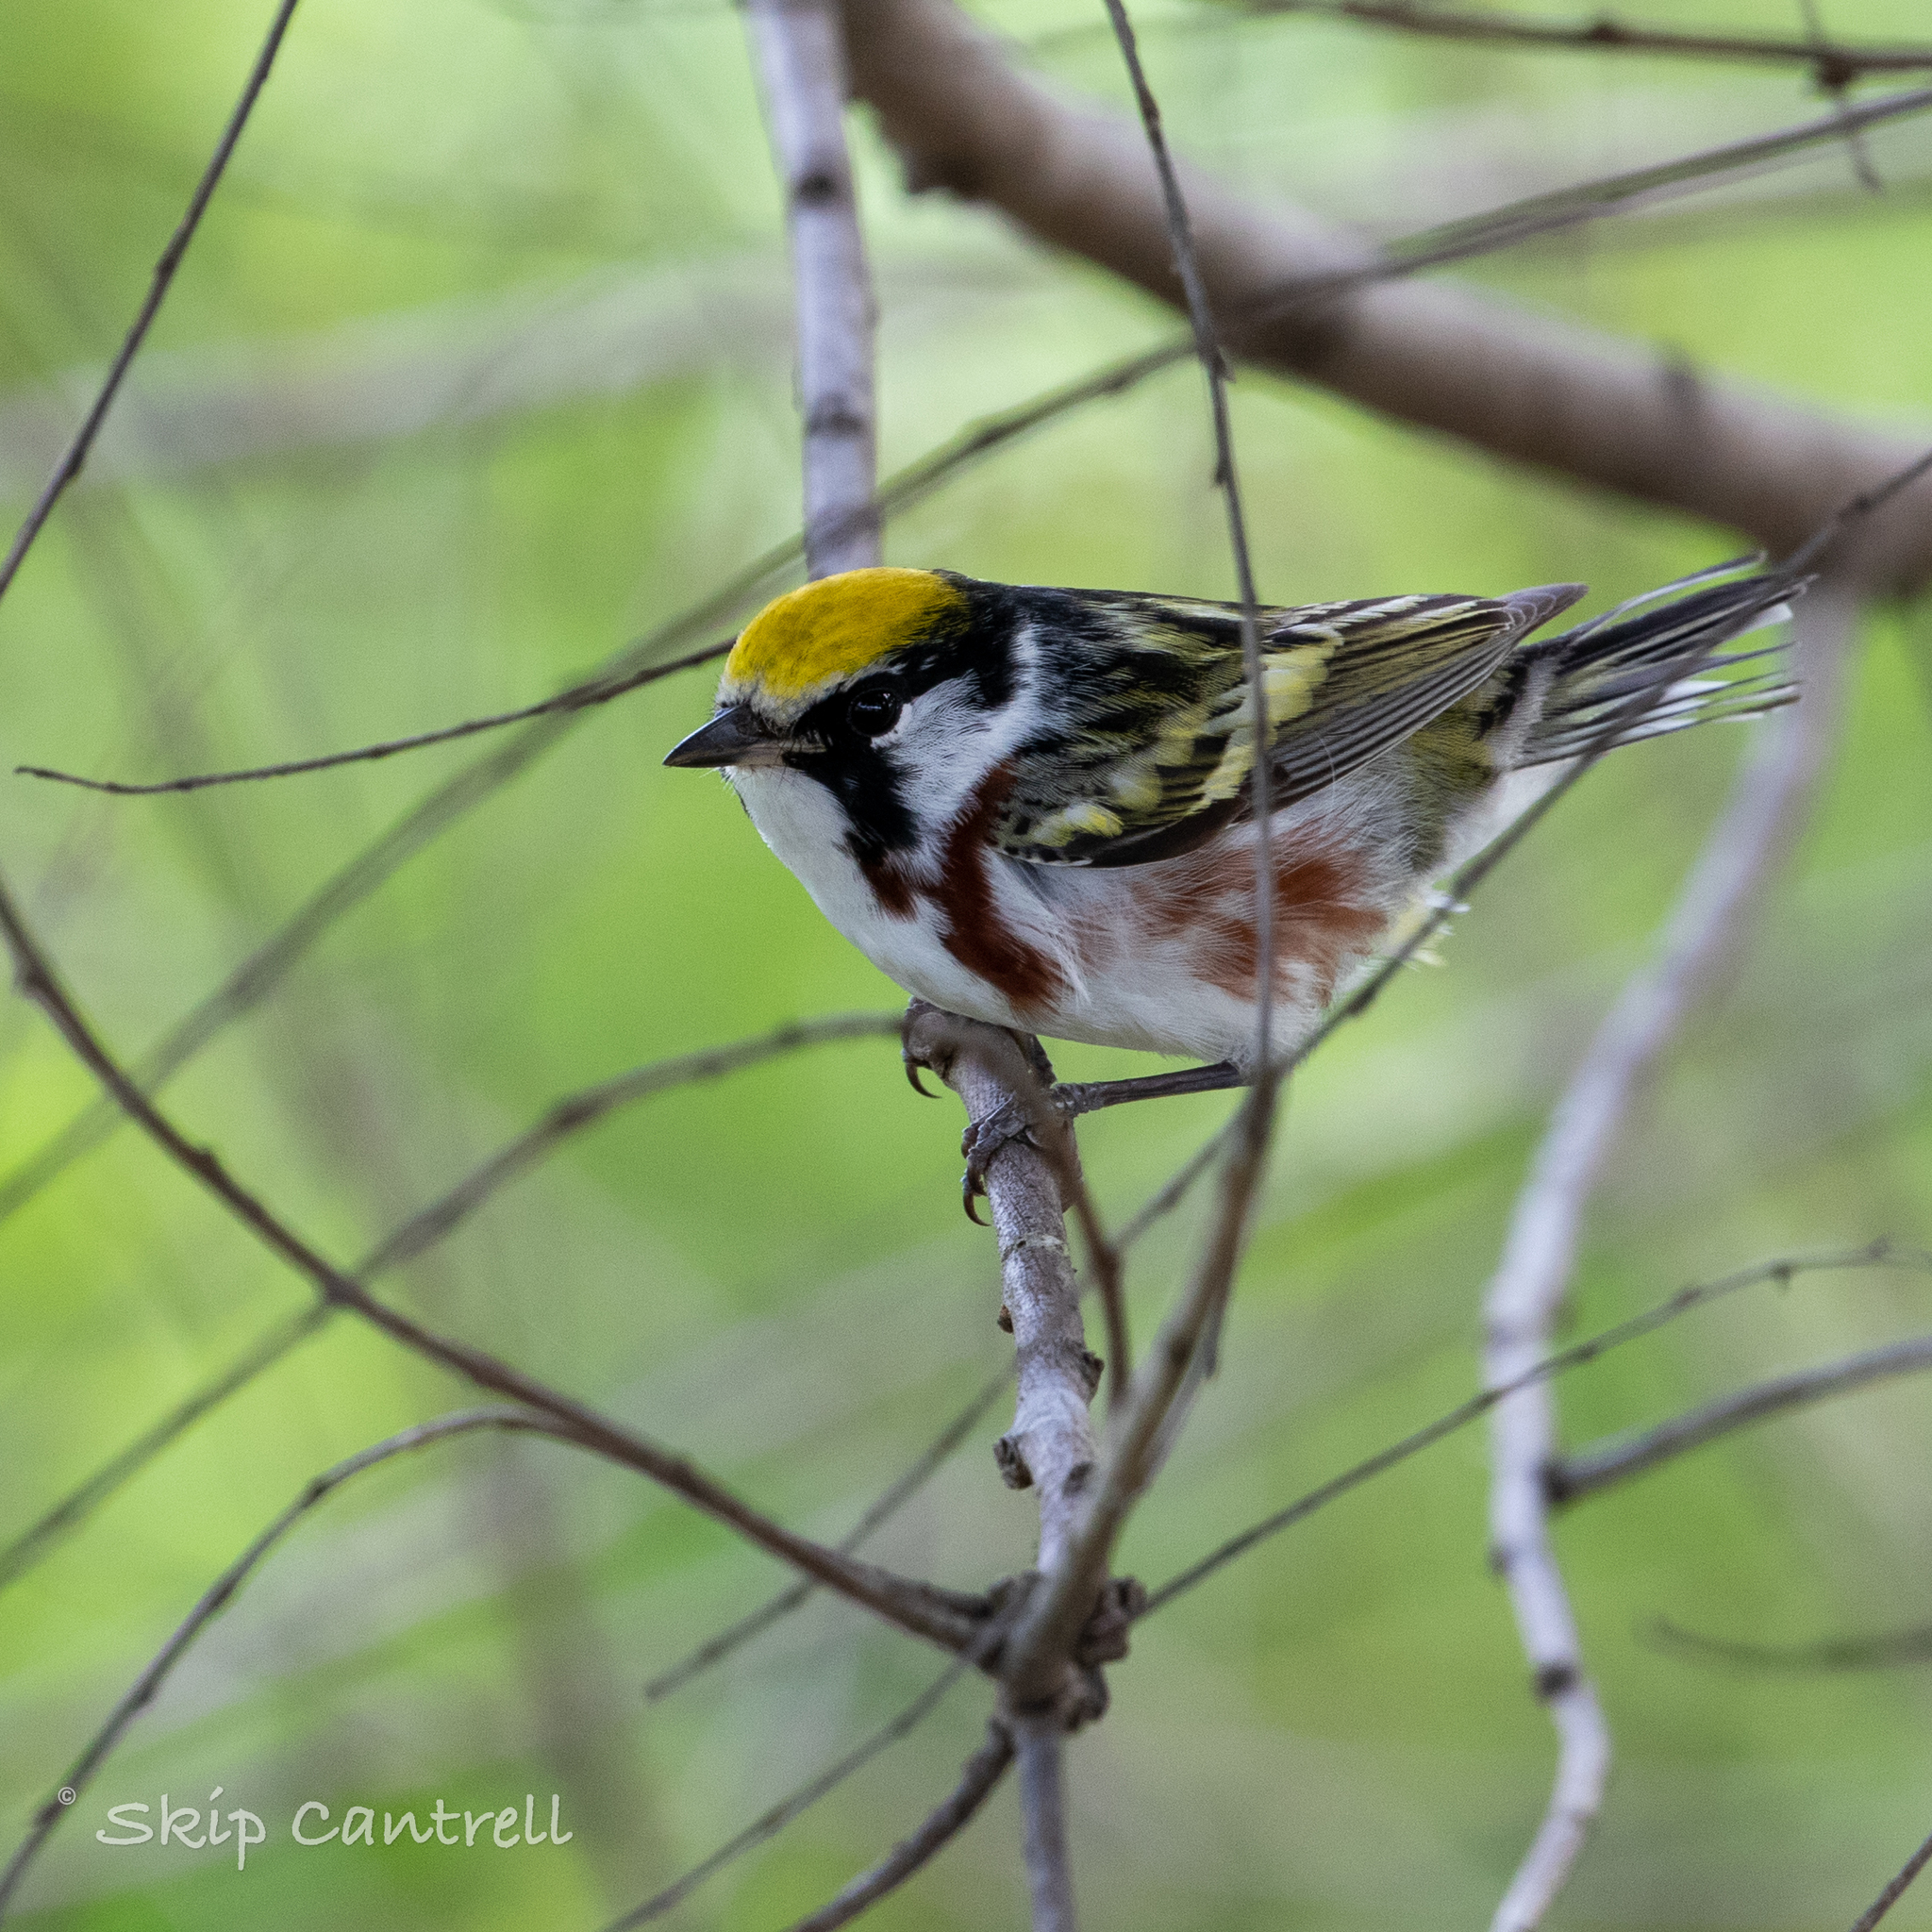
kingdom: Animalia
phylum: Chordata
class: Aves
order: Passeriformes
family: Parulidae
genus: Setophaga
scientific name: Setophaga pensylvanica
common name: Chestnut-sided warbler
